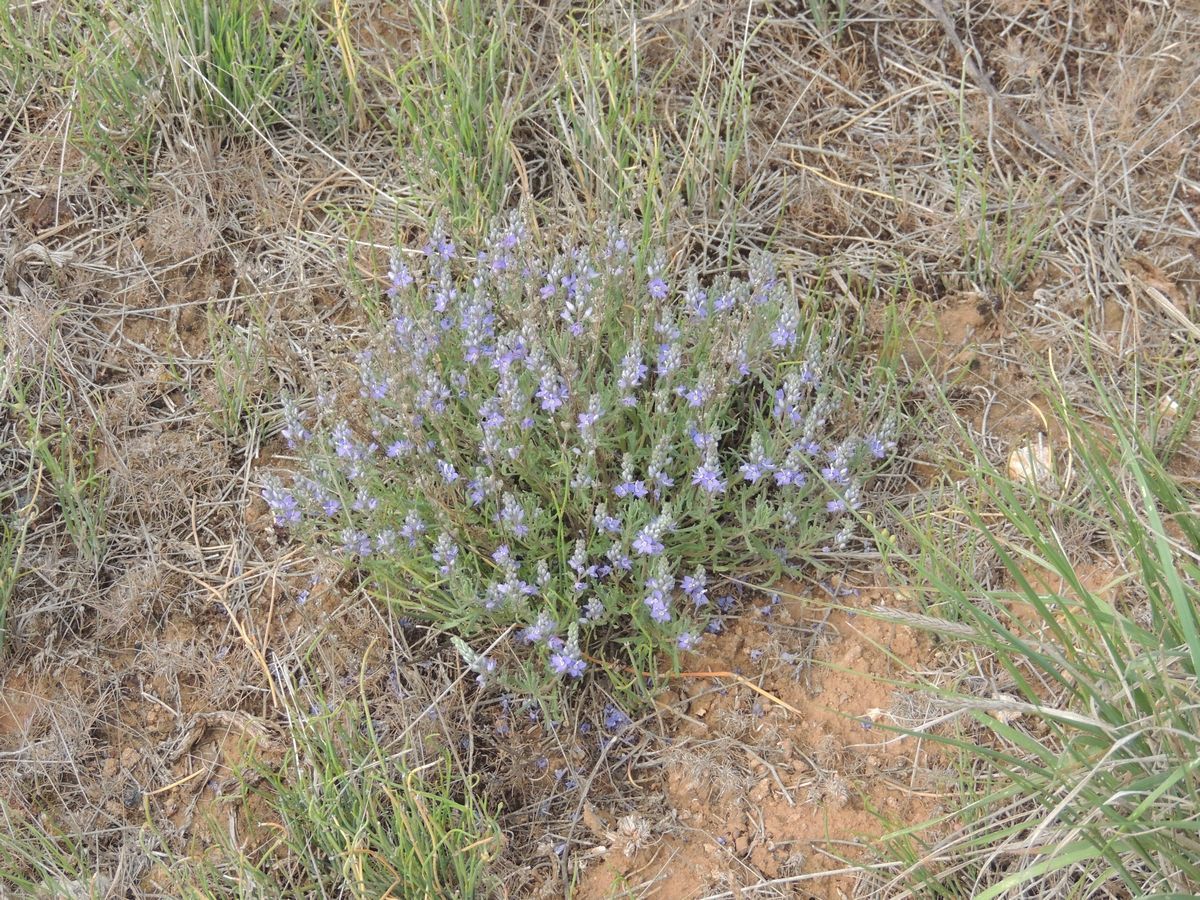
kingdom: Plantae
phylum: Tracheophyta
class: Magnoliopsida
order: Lamiales
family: Plantaginaceae
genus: Veronica
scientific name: Veronica multifida
